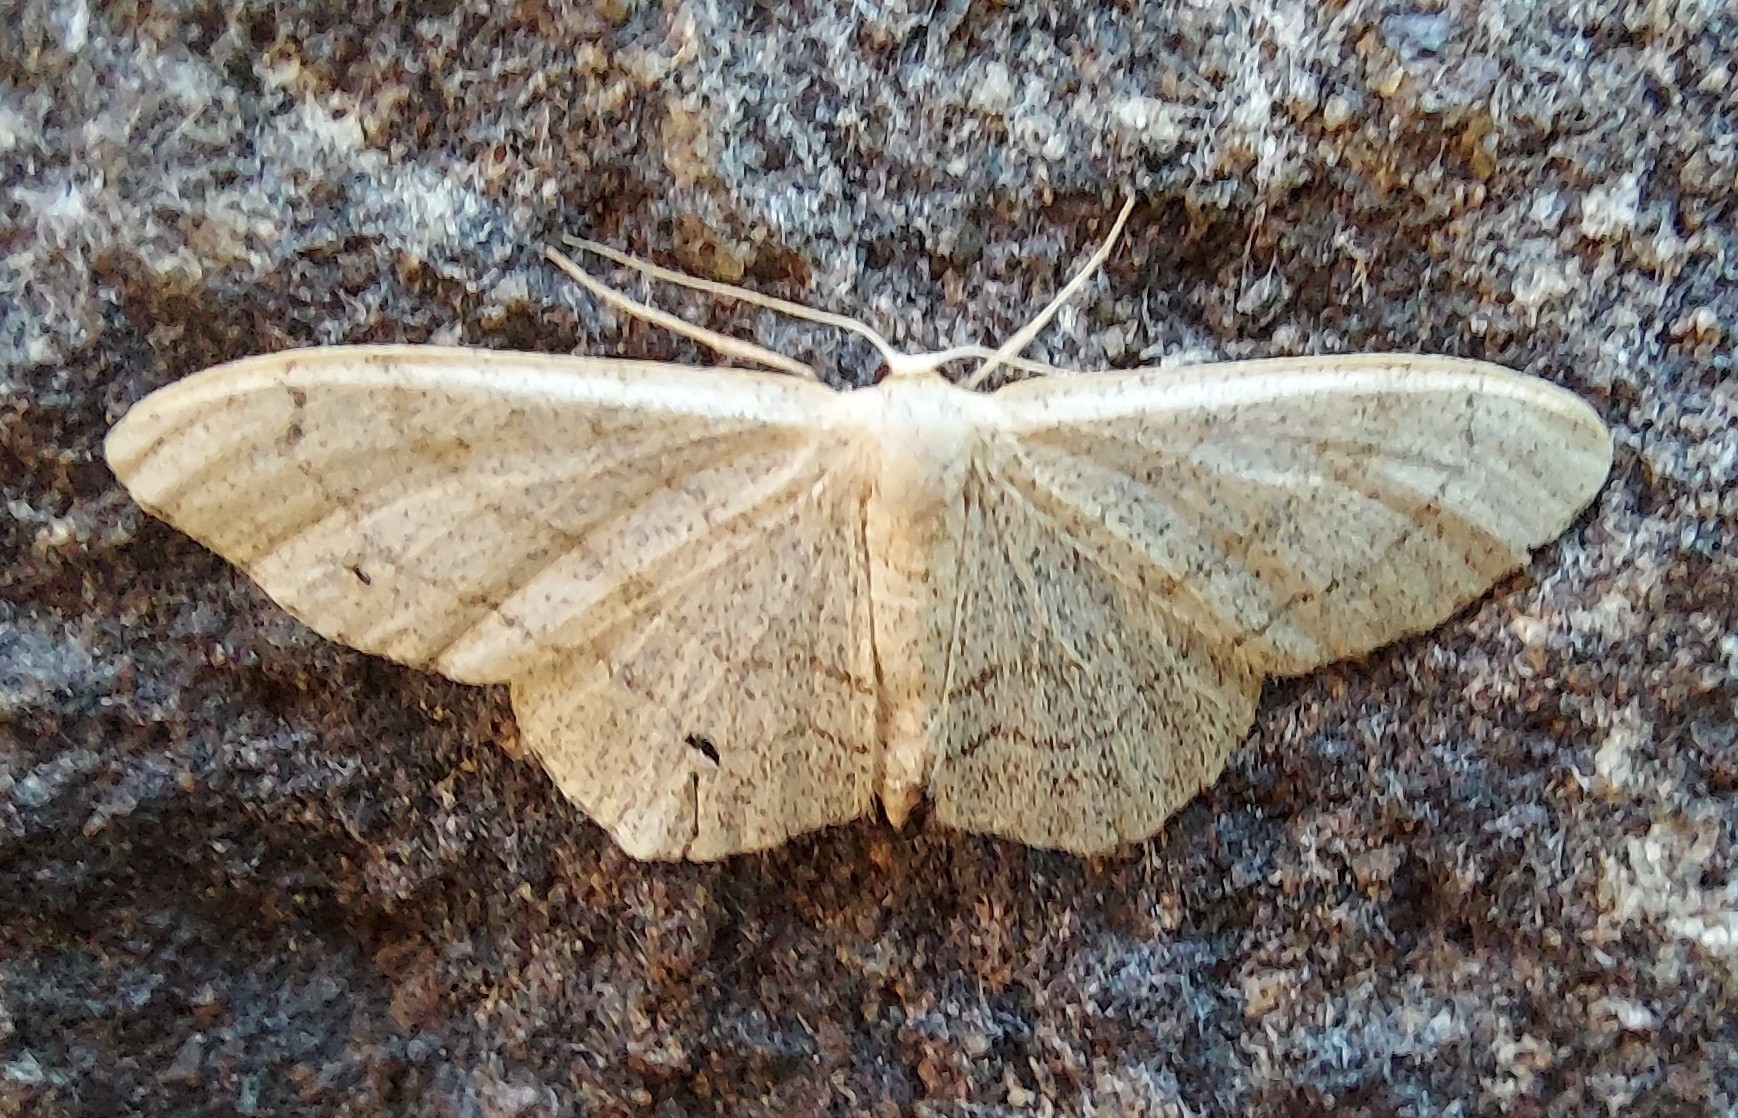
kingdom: Animalia
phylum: Arthropoda
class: Insecta
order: Lepidoptera
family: Geometridae
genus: Idaea
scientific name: Idaea aversata
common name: Riband wave
